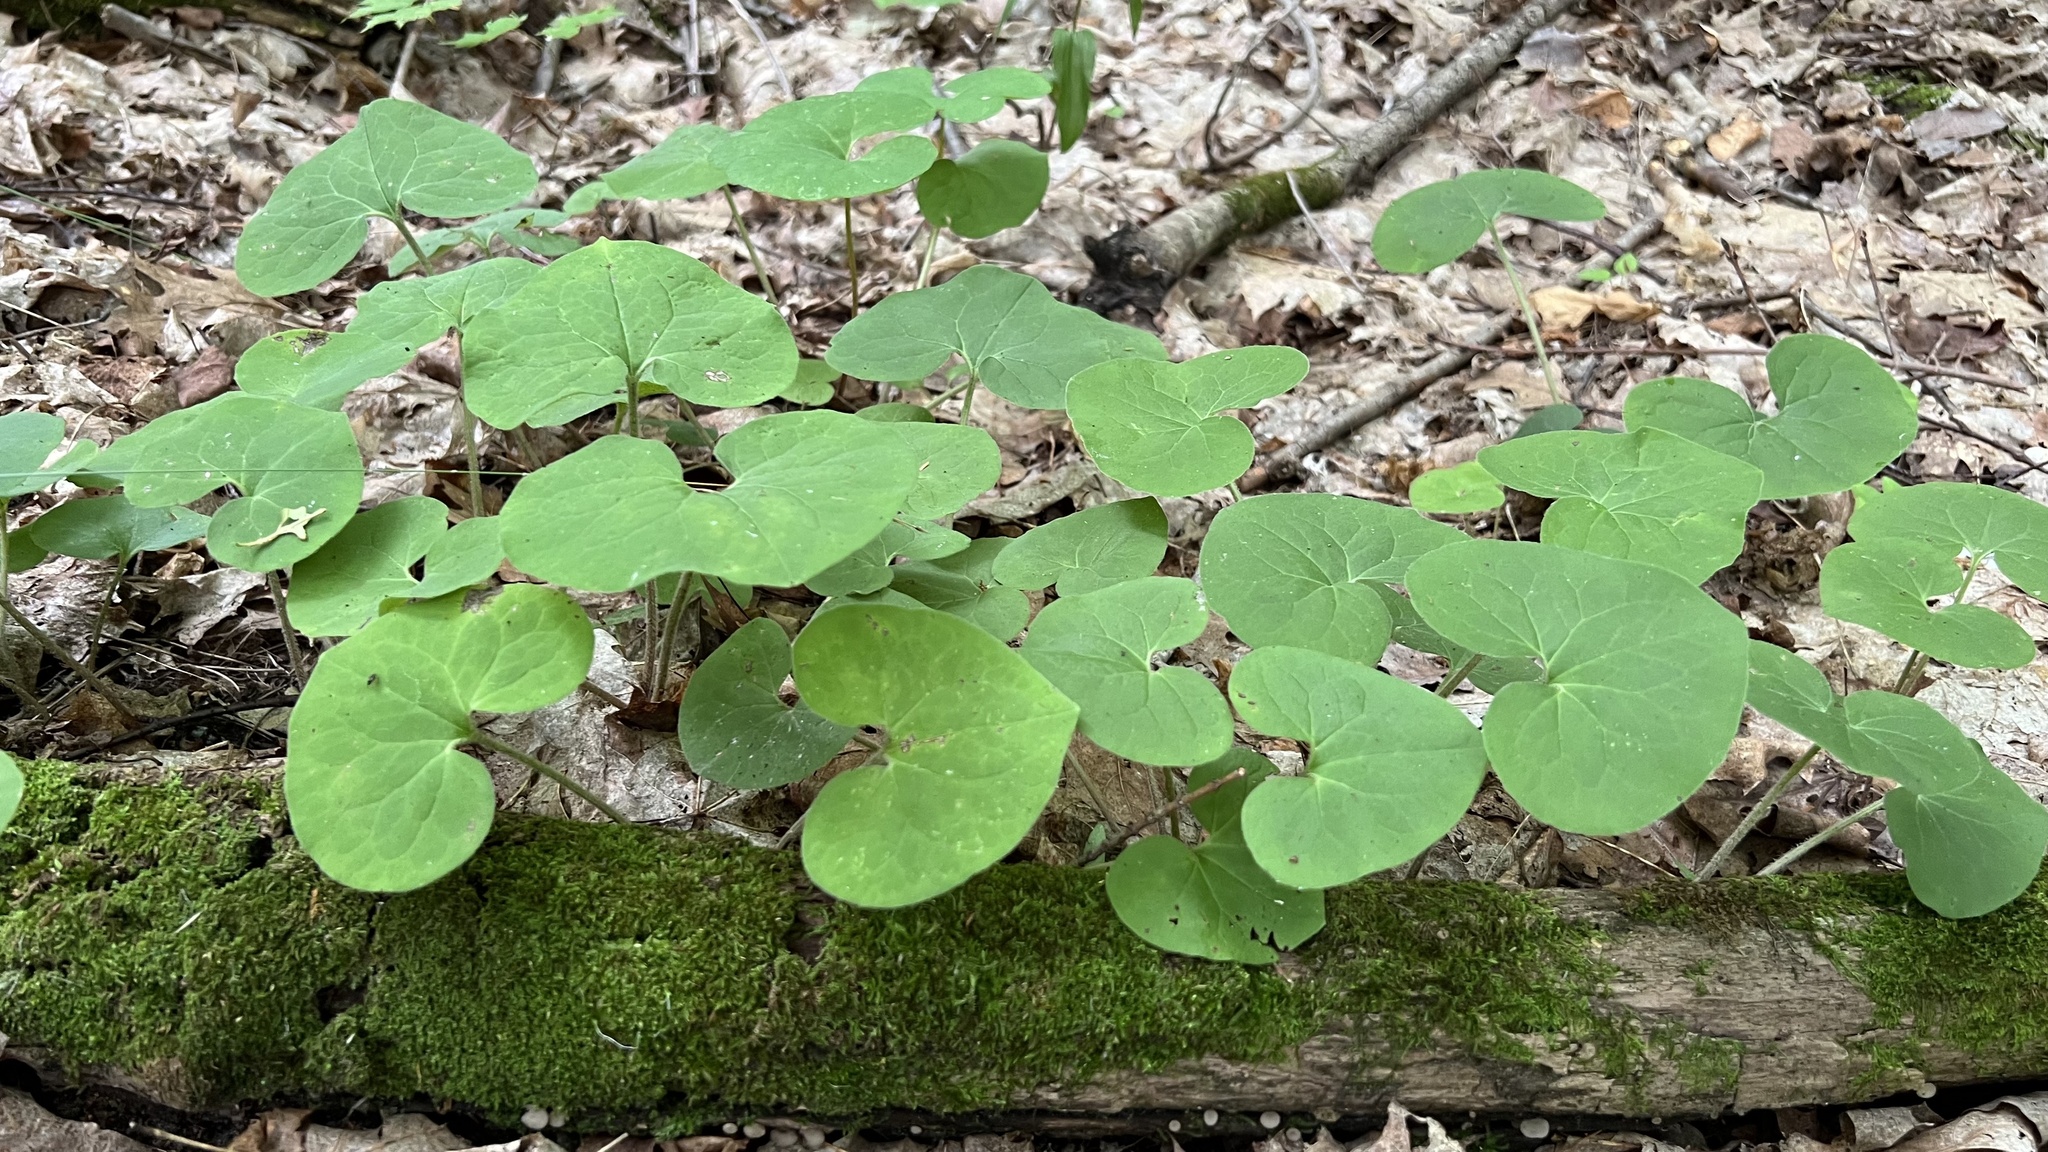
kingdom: Plantae
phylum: Tracheophyta
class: Magnoliopsida
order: Piperales
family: Aristolochiaceae
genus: Asarum
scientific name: Asarum canadense
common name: Wild ginger
